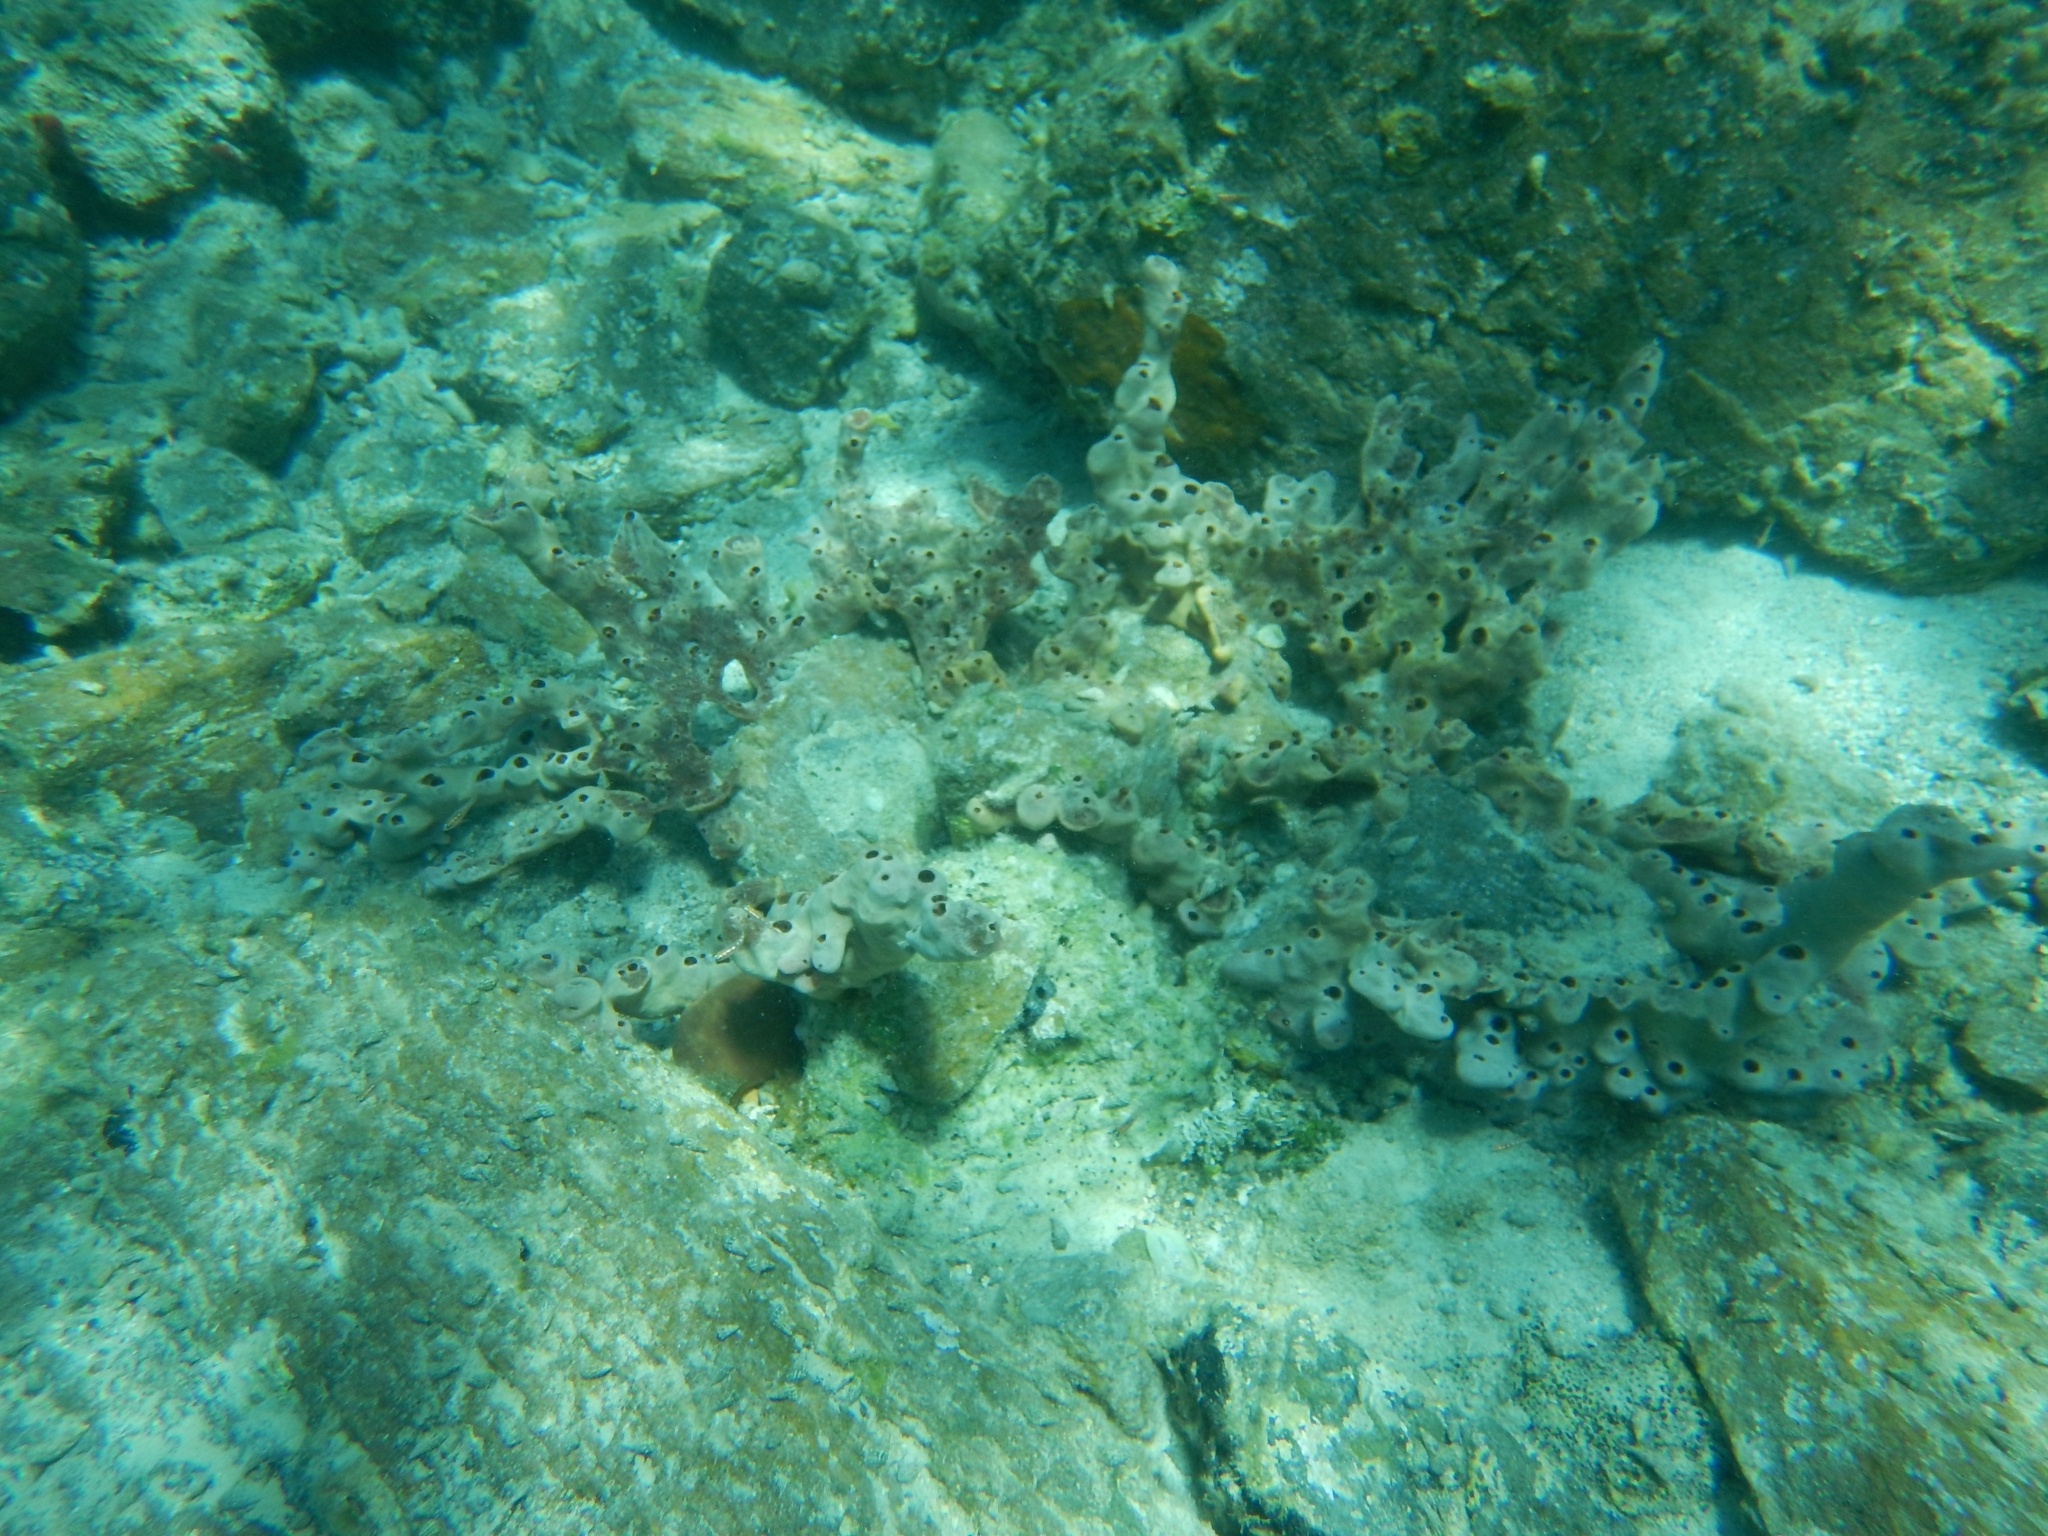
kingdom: Animalia
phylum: Porifera
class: Demospongiae
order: Poecilosclerida
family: Desmacididae
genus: Desmapsamma
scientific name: Desmapsamma anchorata
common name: Lumpy overgrowing sponge
